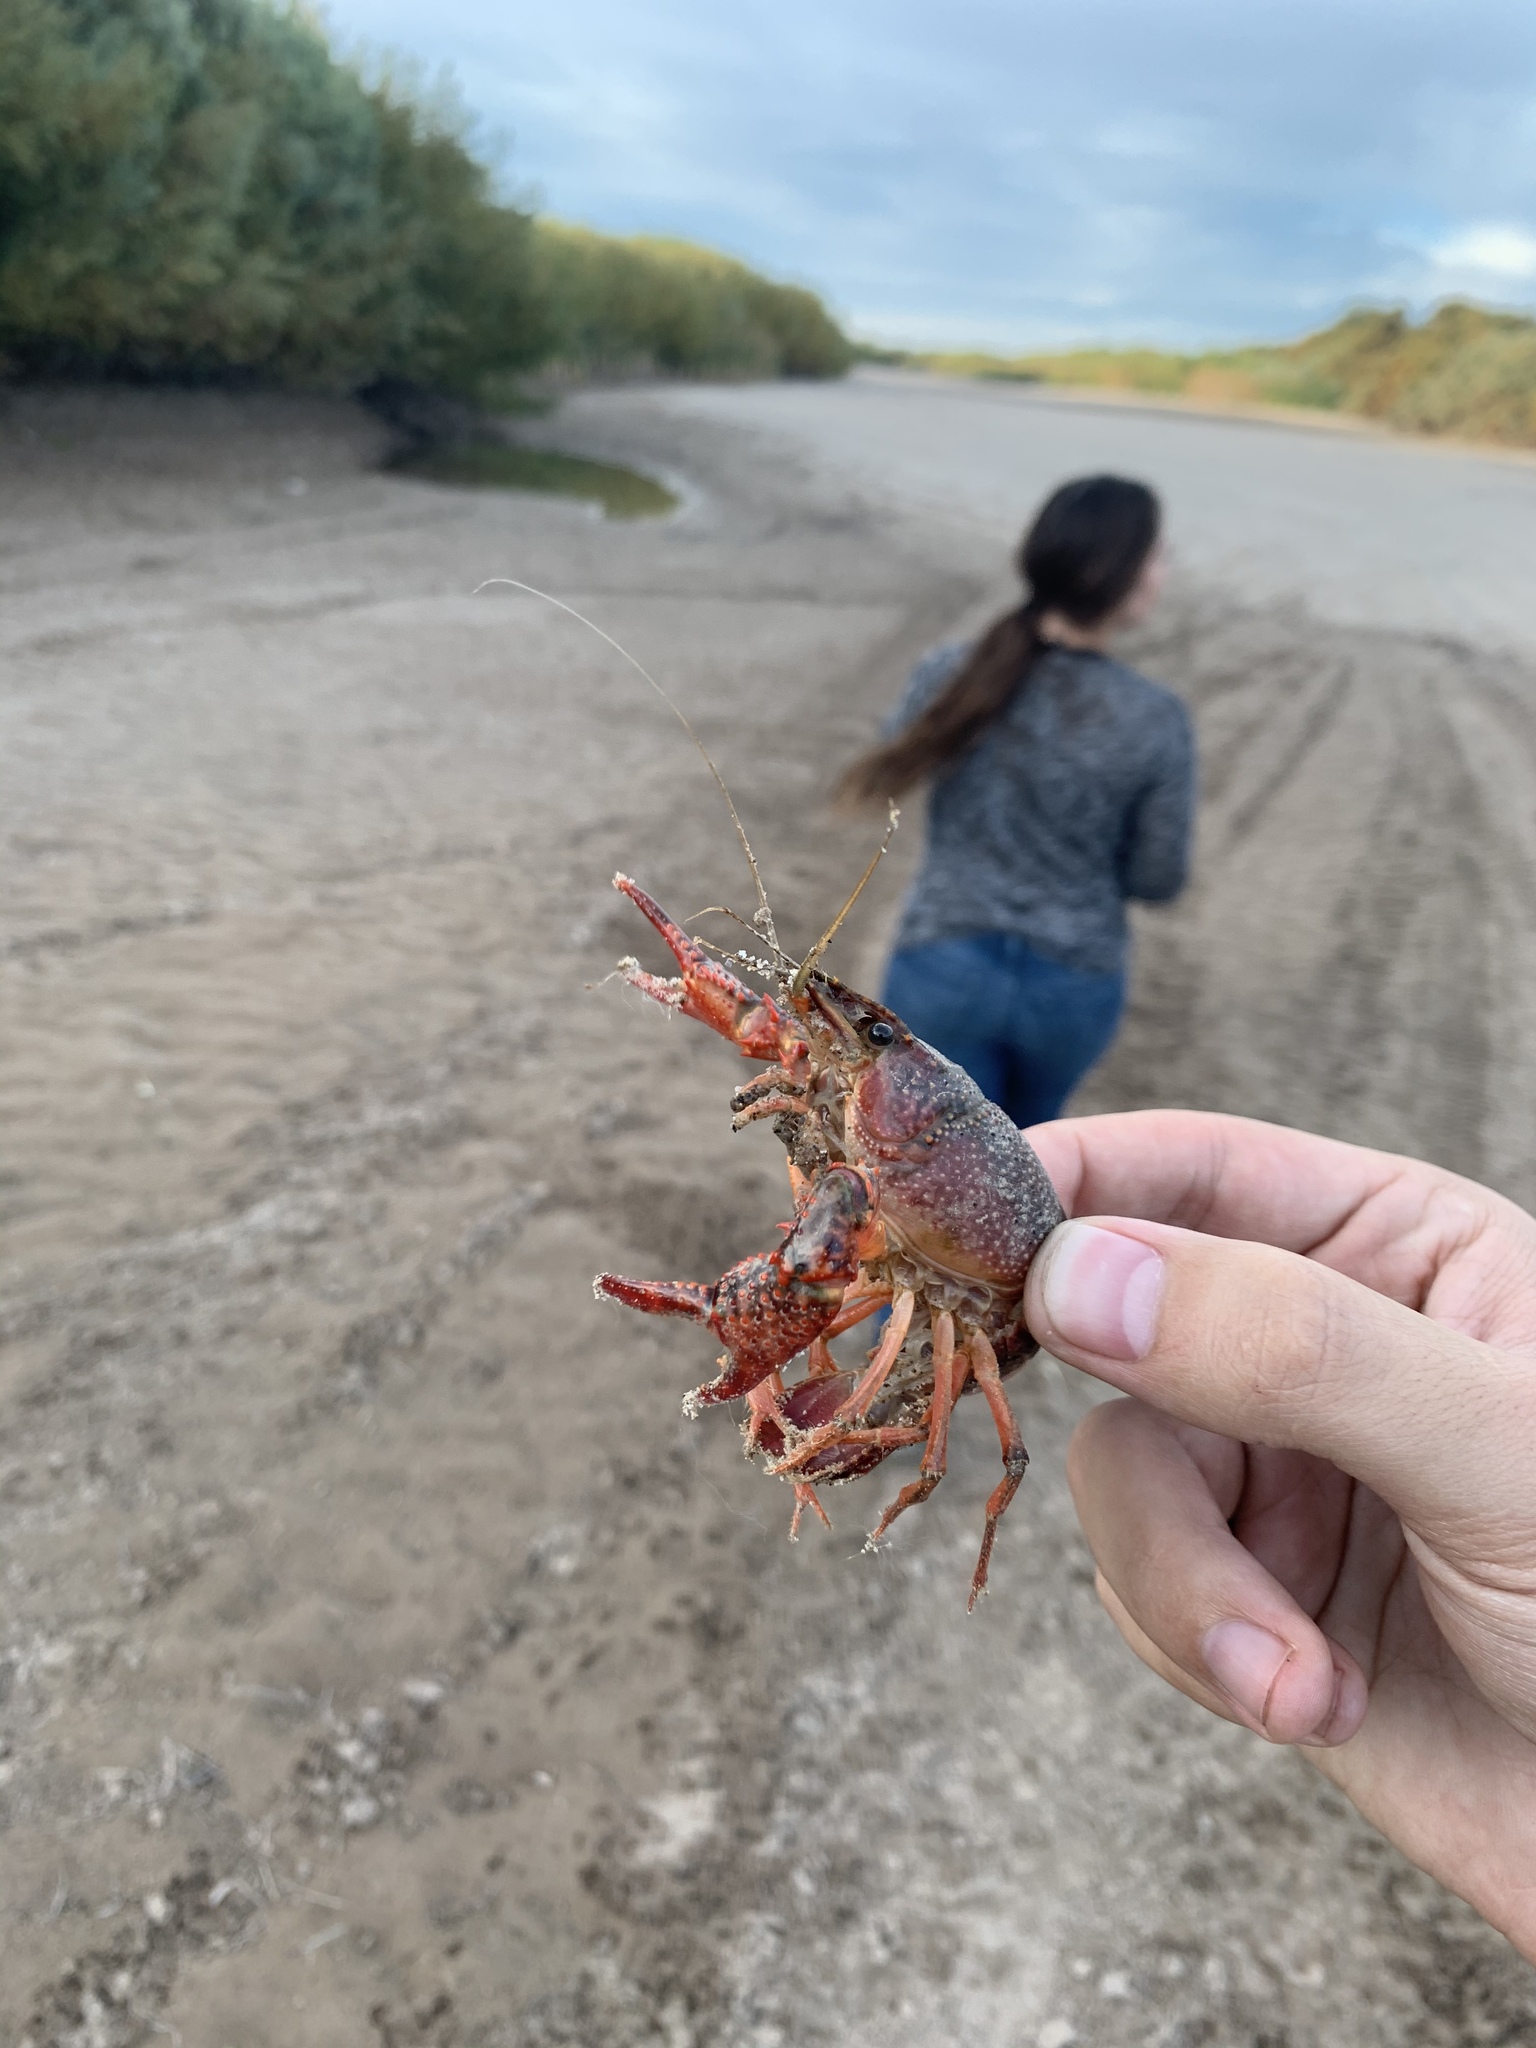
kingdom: Animalia
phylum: Arthropoda
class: Malacostraca
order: Decapoda
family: Cambaridae
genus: Procambarus
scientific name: Procambarus clarkii
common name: Red swamp crayfish
